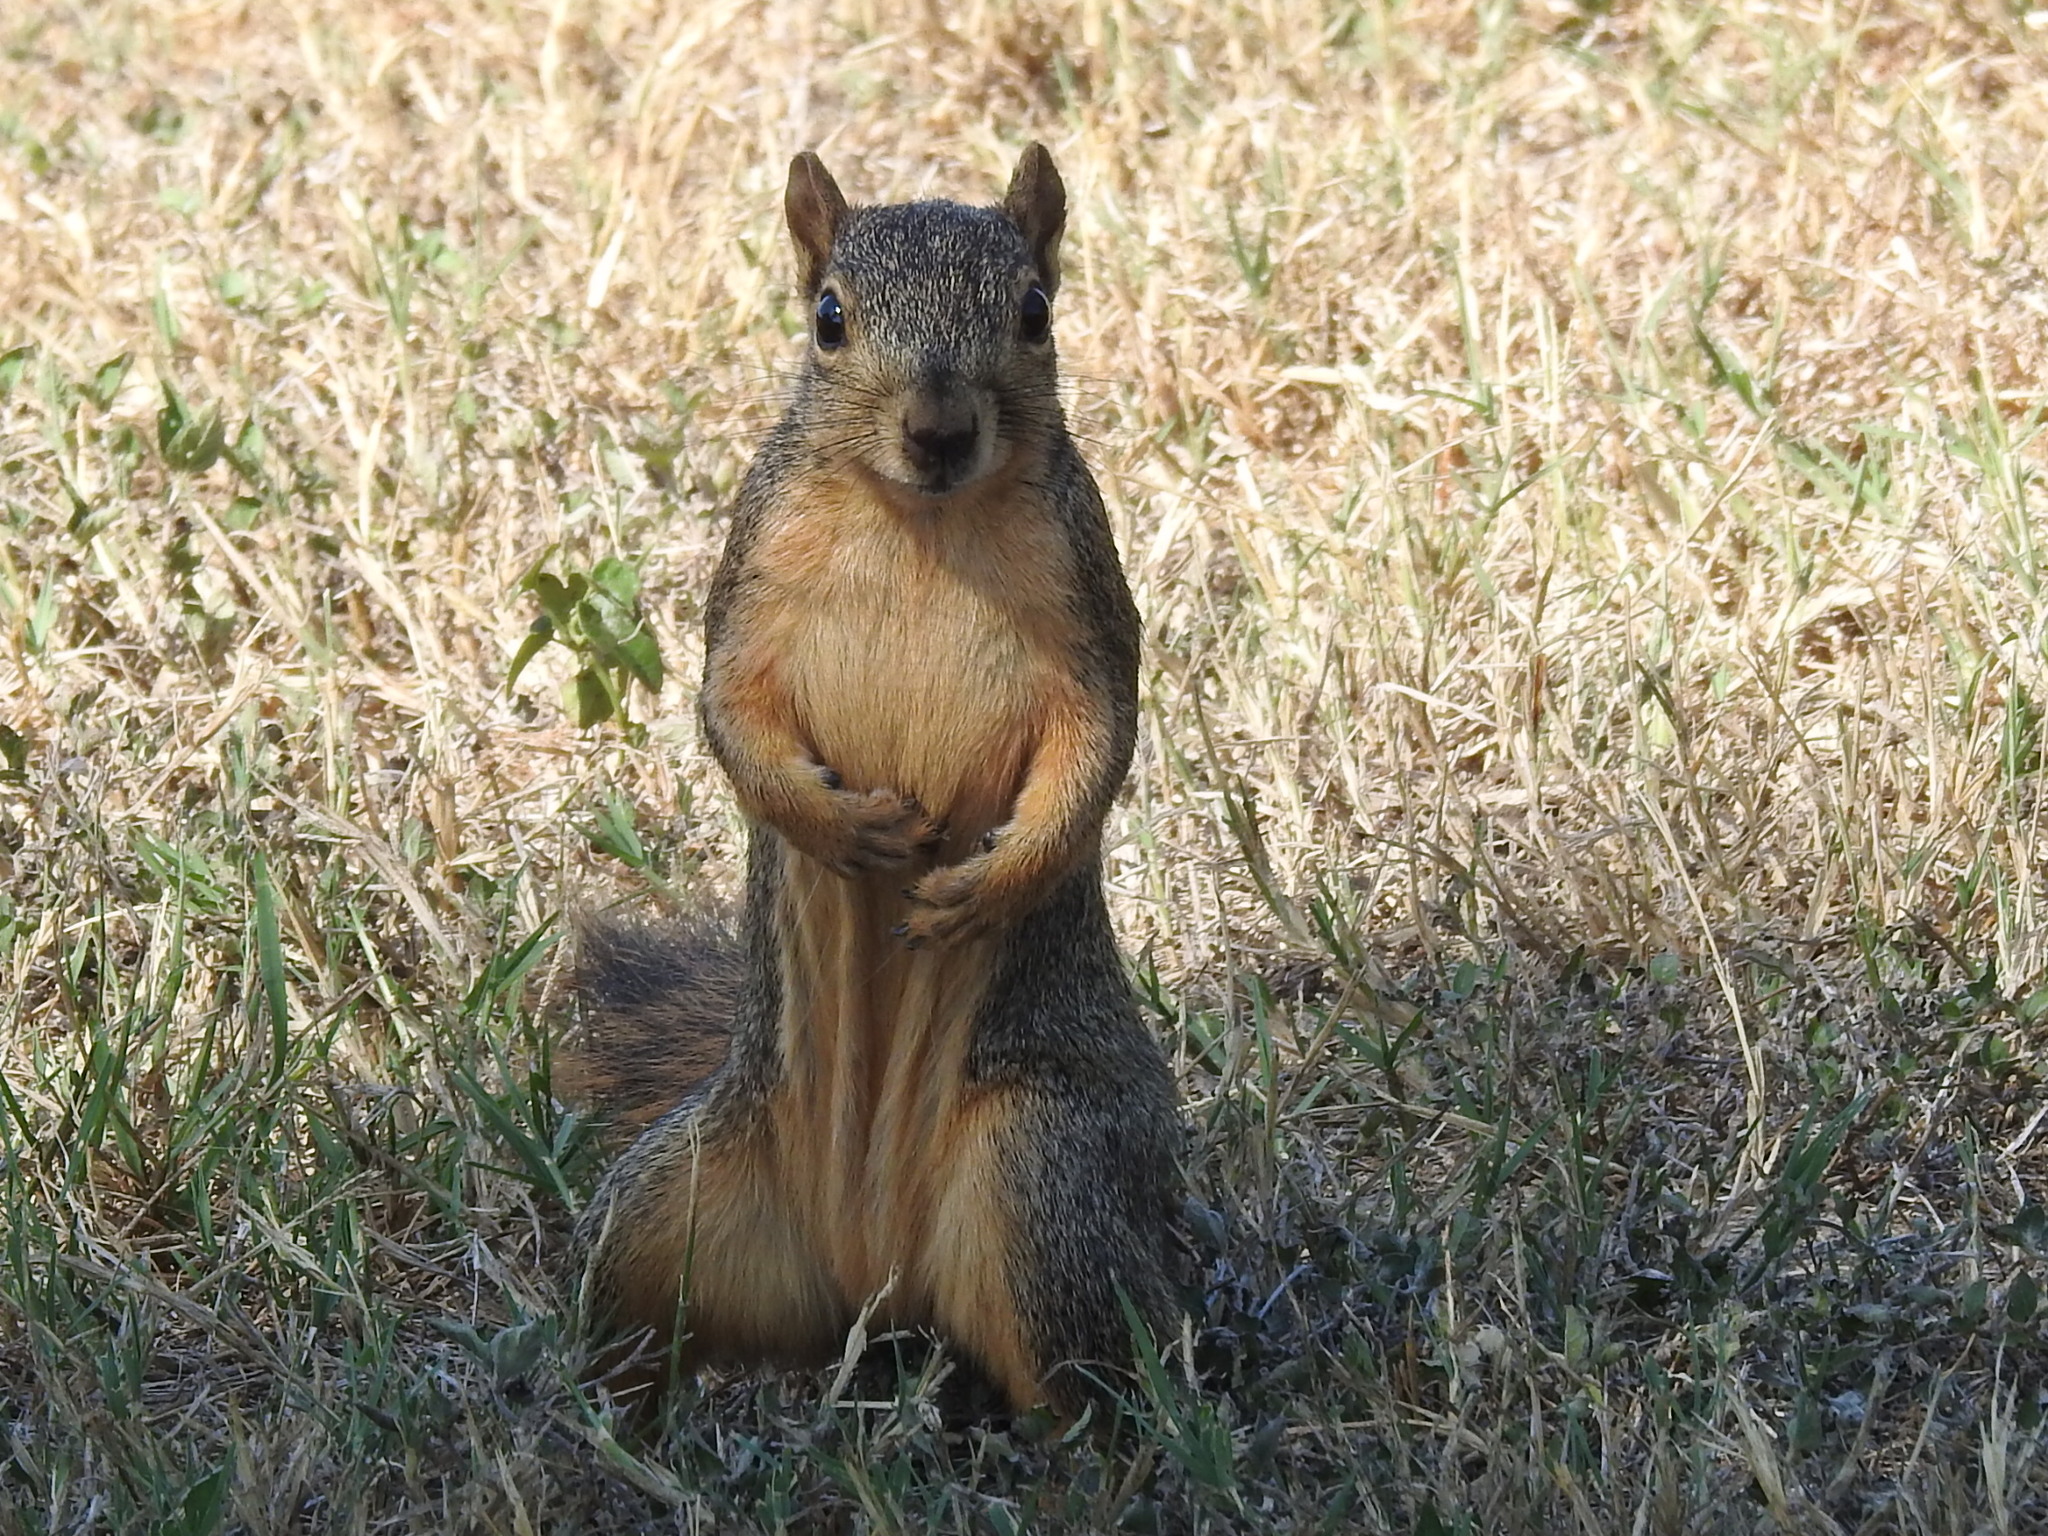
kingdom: Animalia
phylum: Chordata
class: Mammalia
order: Rodentia
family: Sciuridae
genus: Sciurus
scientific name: Sciurus niger
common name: Fox squirrel
